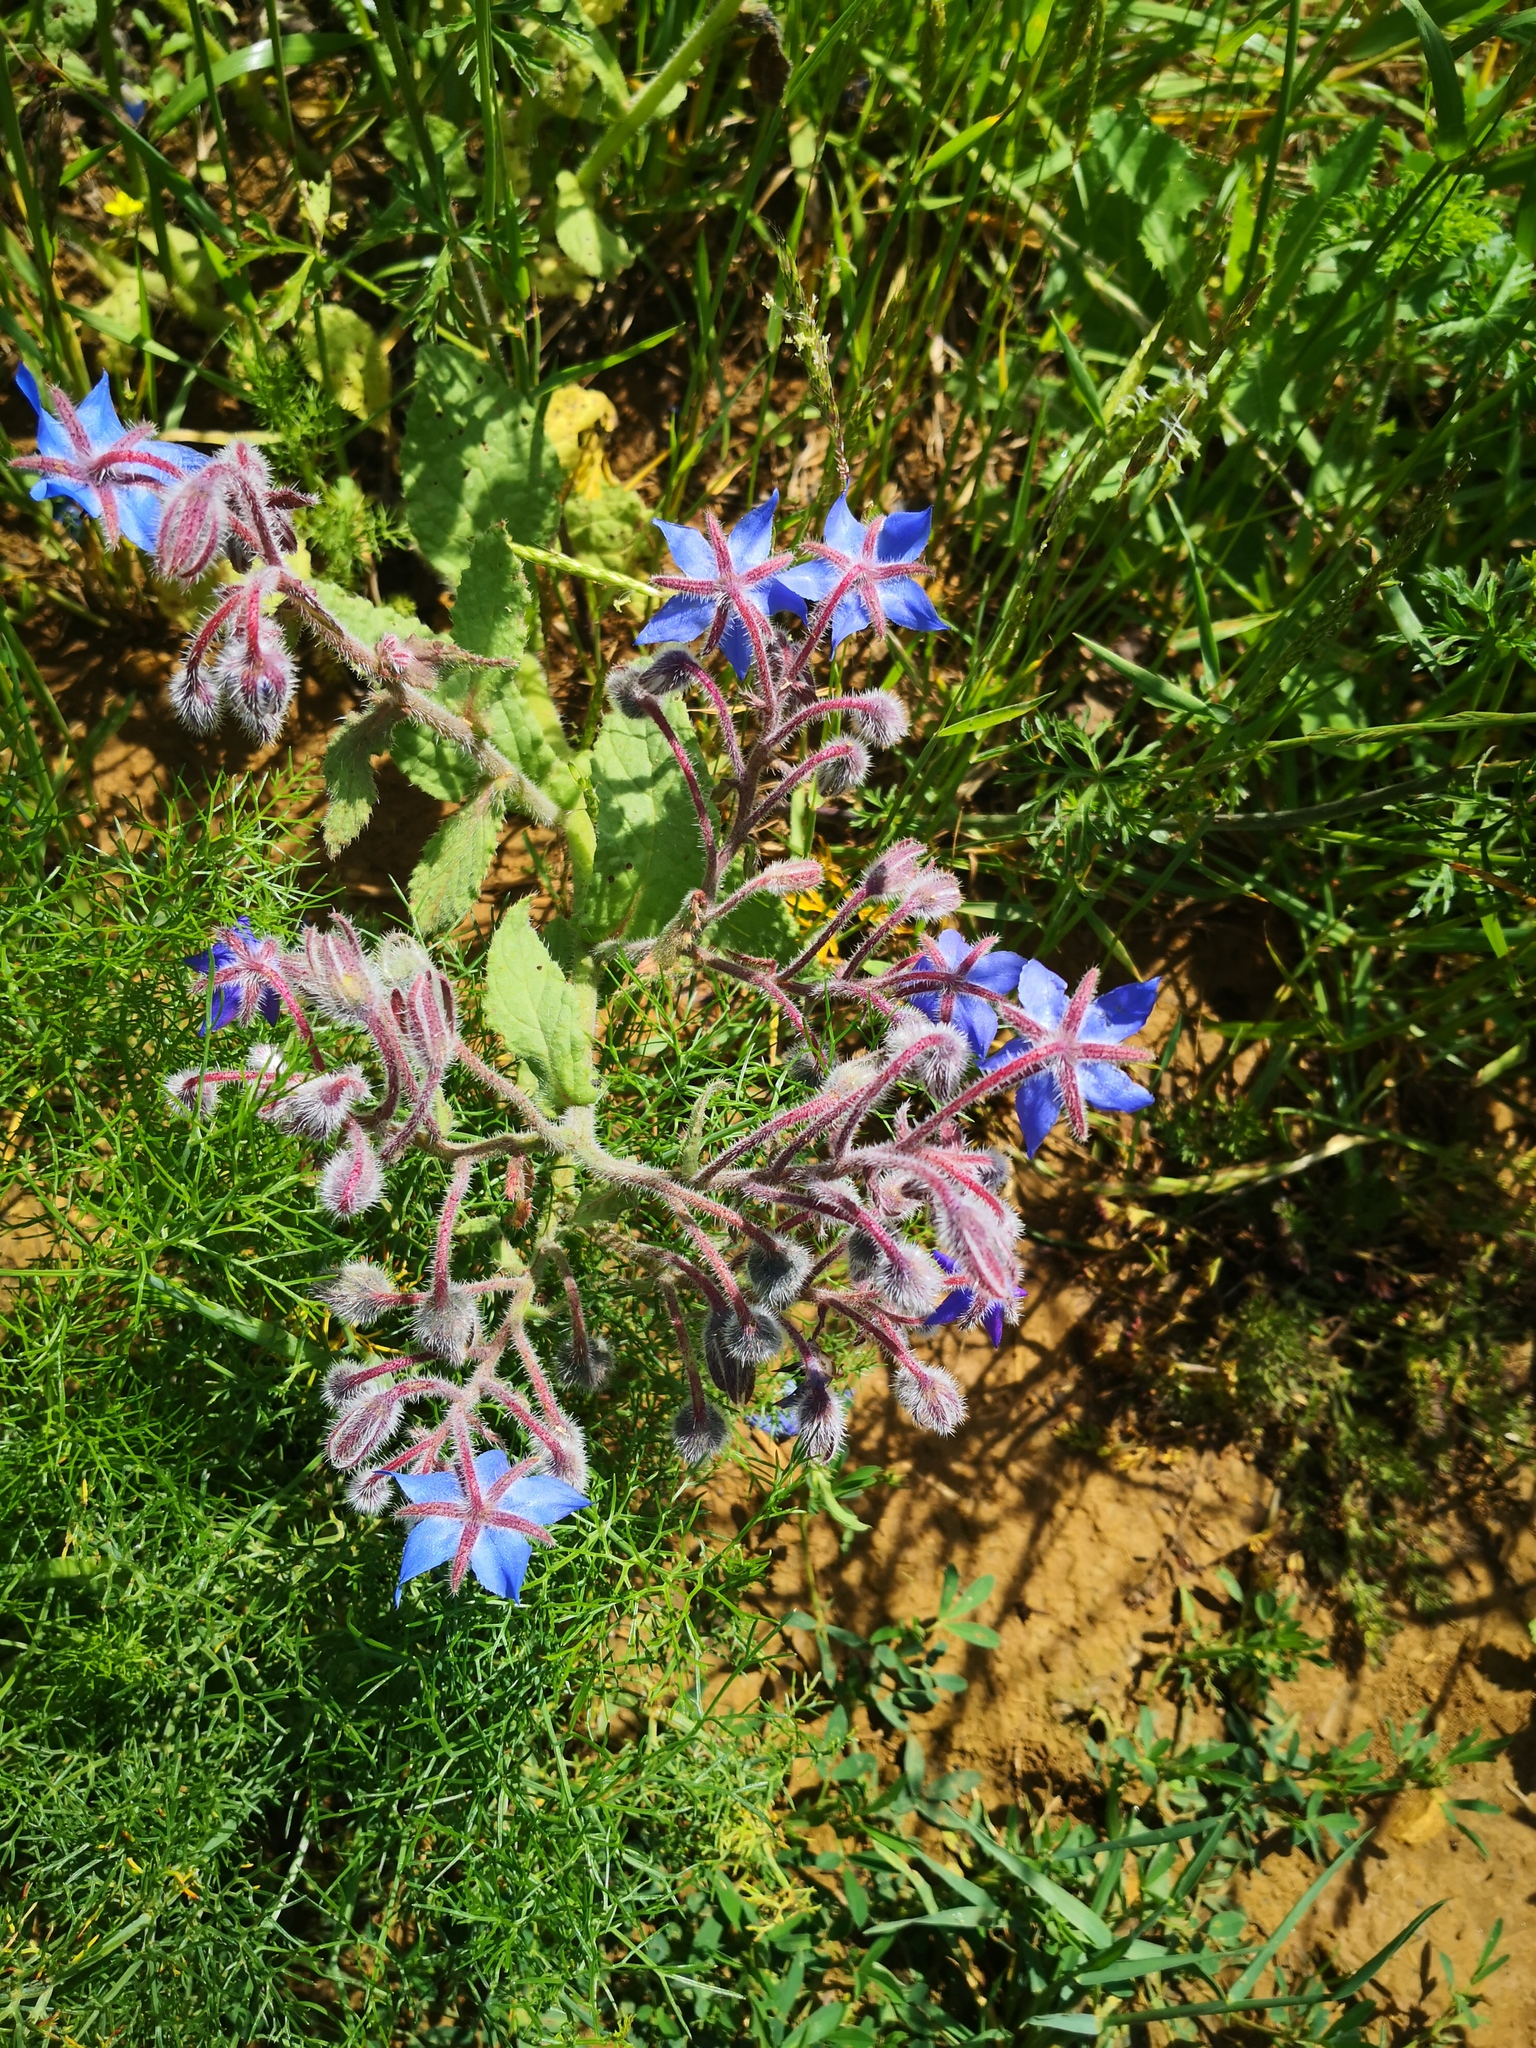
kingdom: Plantae
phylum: Tracheophyta
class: Magnoliopsida
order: Boraginales
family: Boraginaceae
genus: Borago
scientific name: Borago officinalis
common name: Borage
